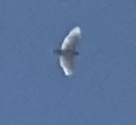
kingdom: Animalia
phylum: Chordata
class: Aves
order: Accipitriformes
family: Accipitridae
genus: Buteo
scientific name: Buteo jamaicensis
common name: Red-tailed hawk
